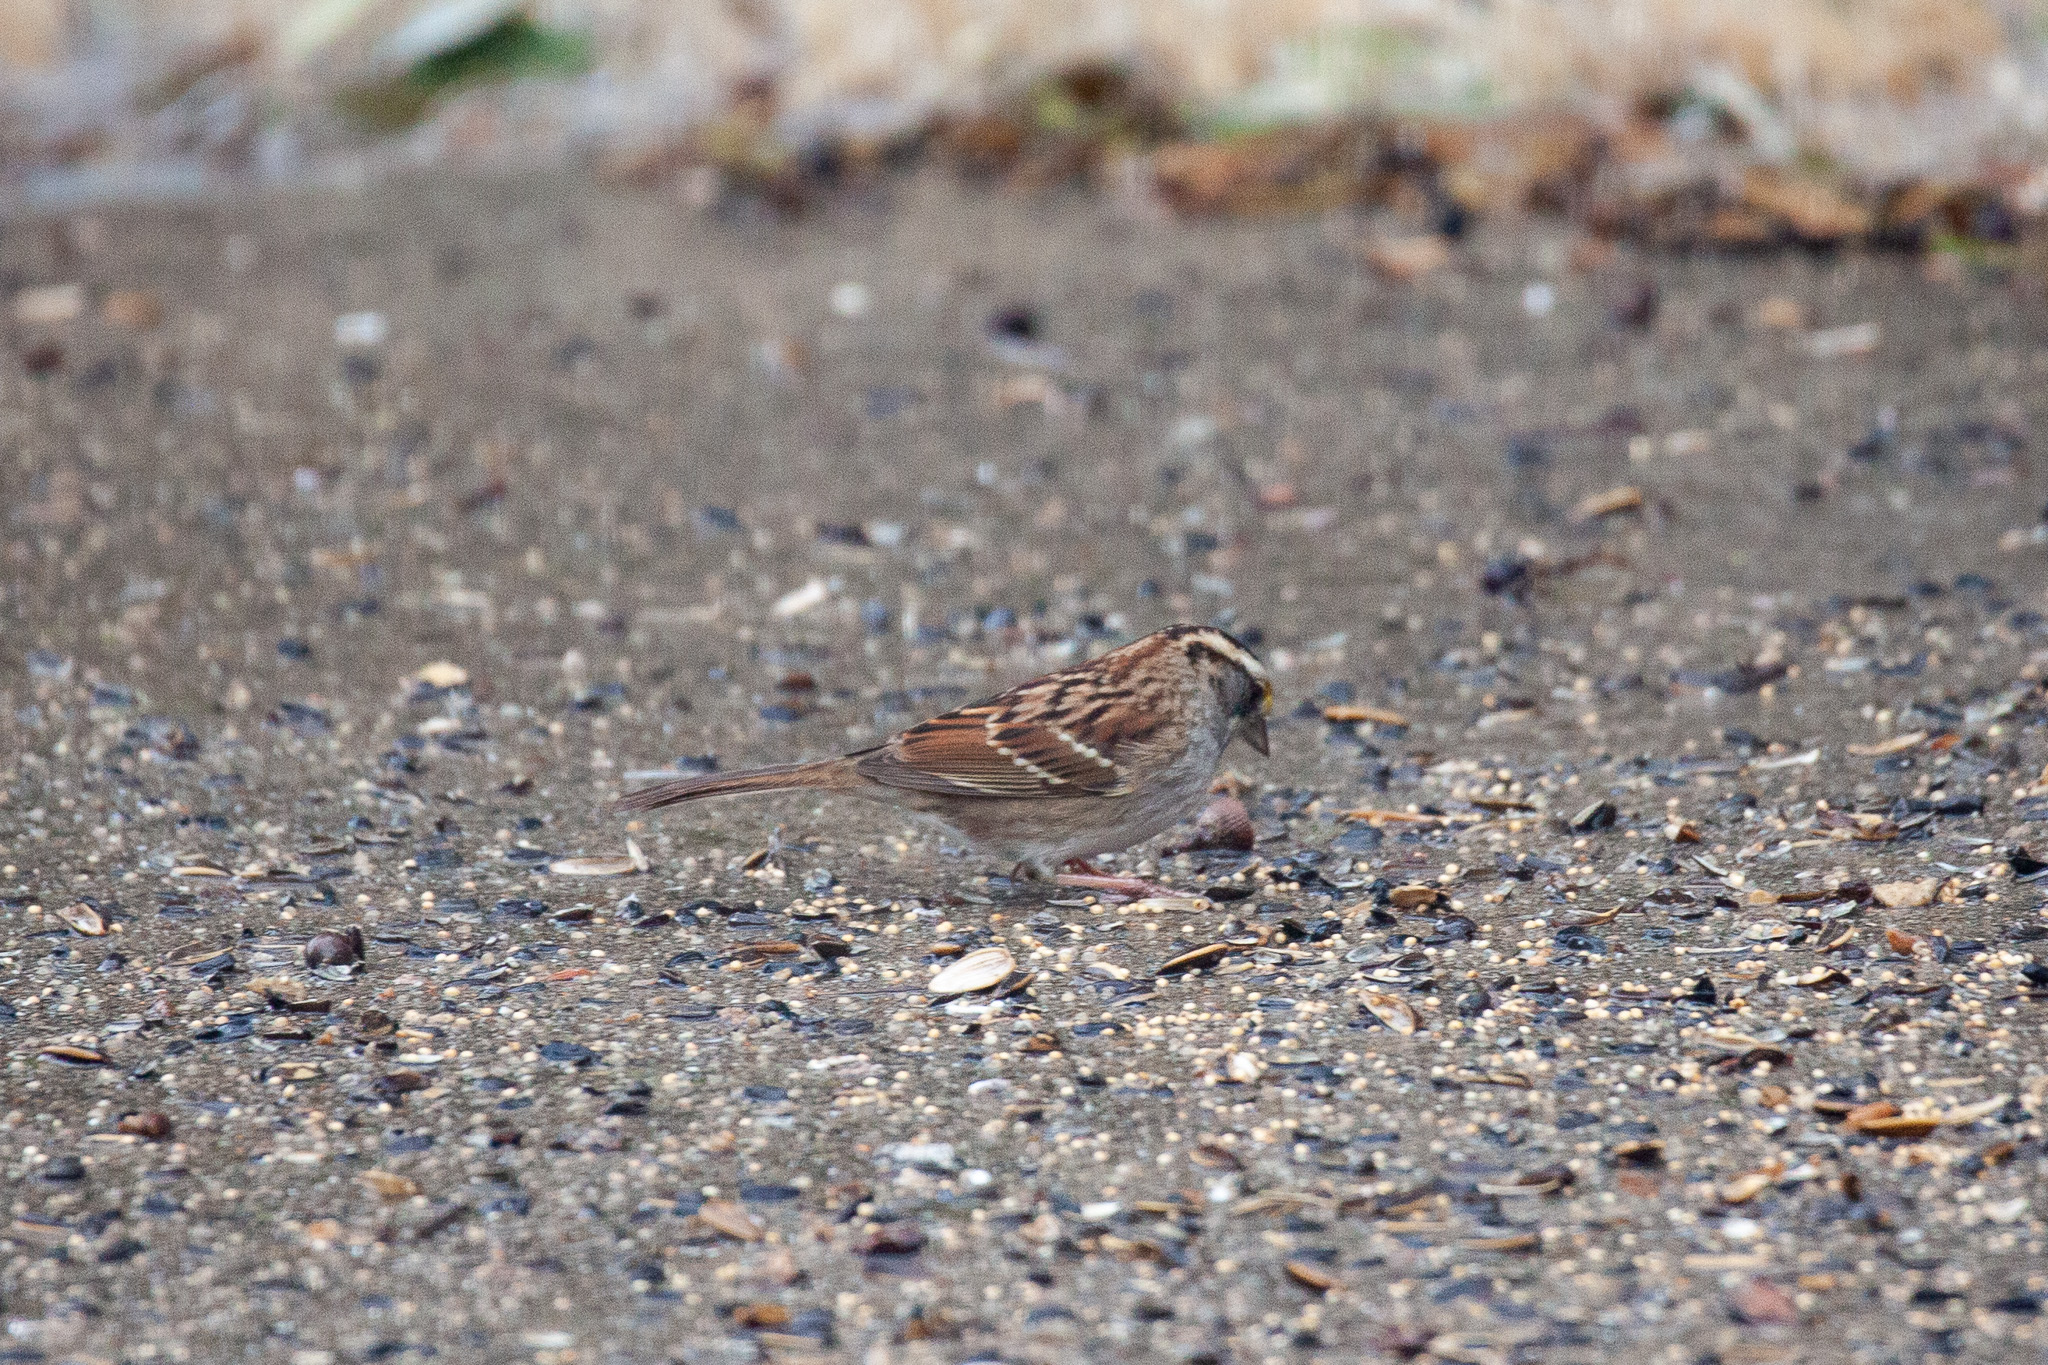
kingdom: Animalia
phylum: Chordata
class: Aves
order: Passeriformes
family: Passerellidae
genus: Zonotrichia
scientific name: Zonotrichia albicollis
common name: White-throated sparrow
